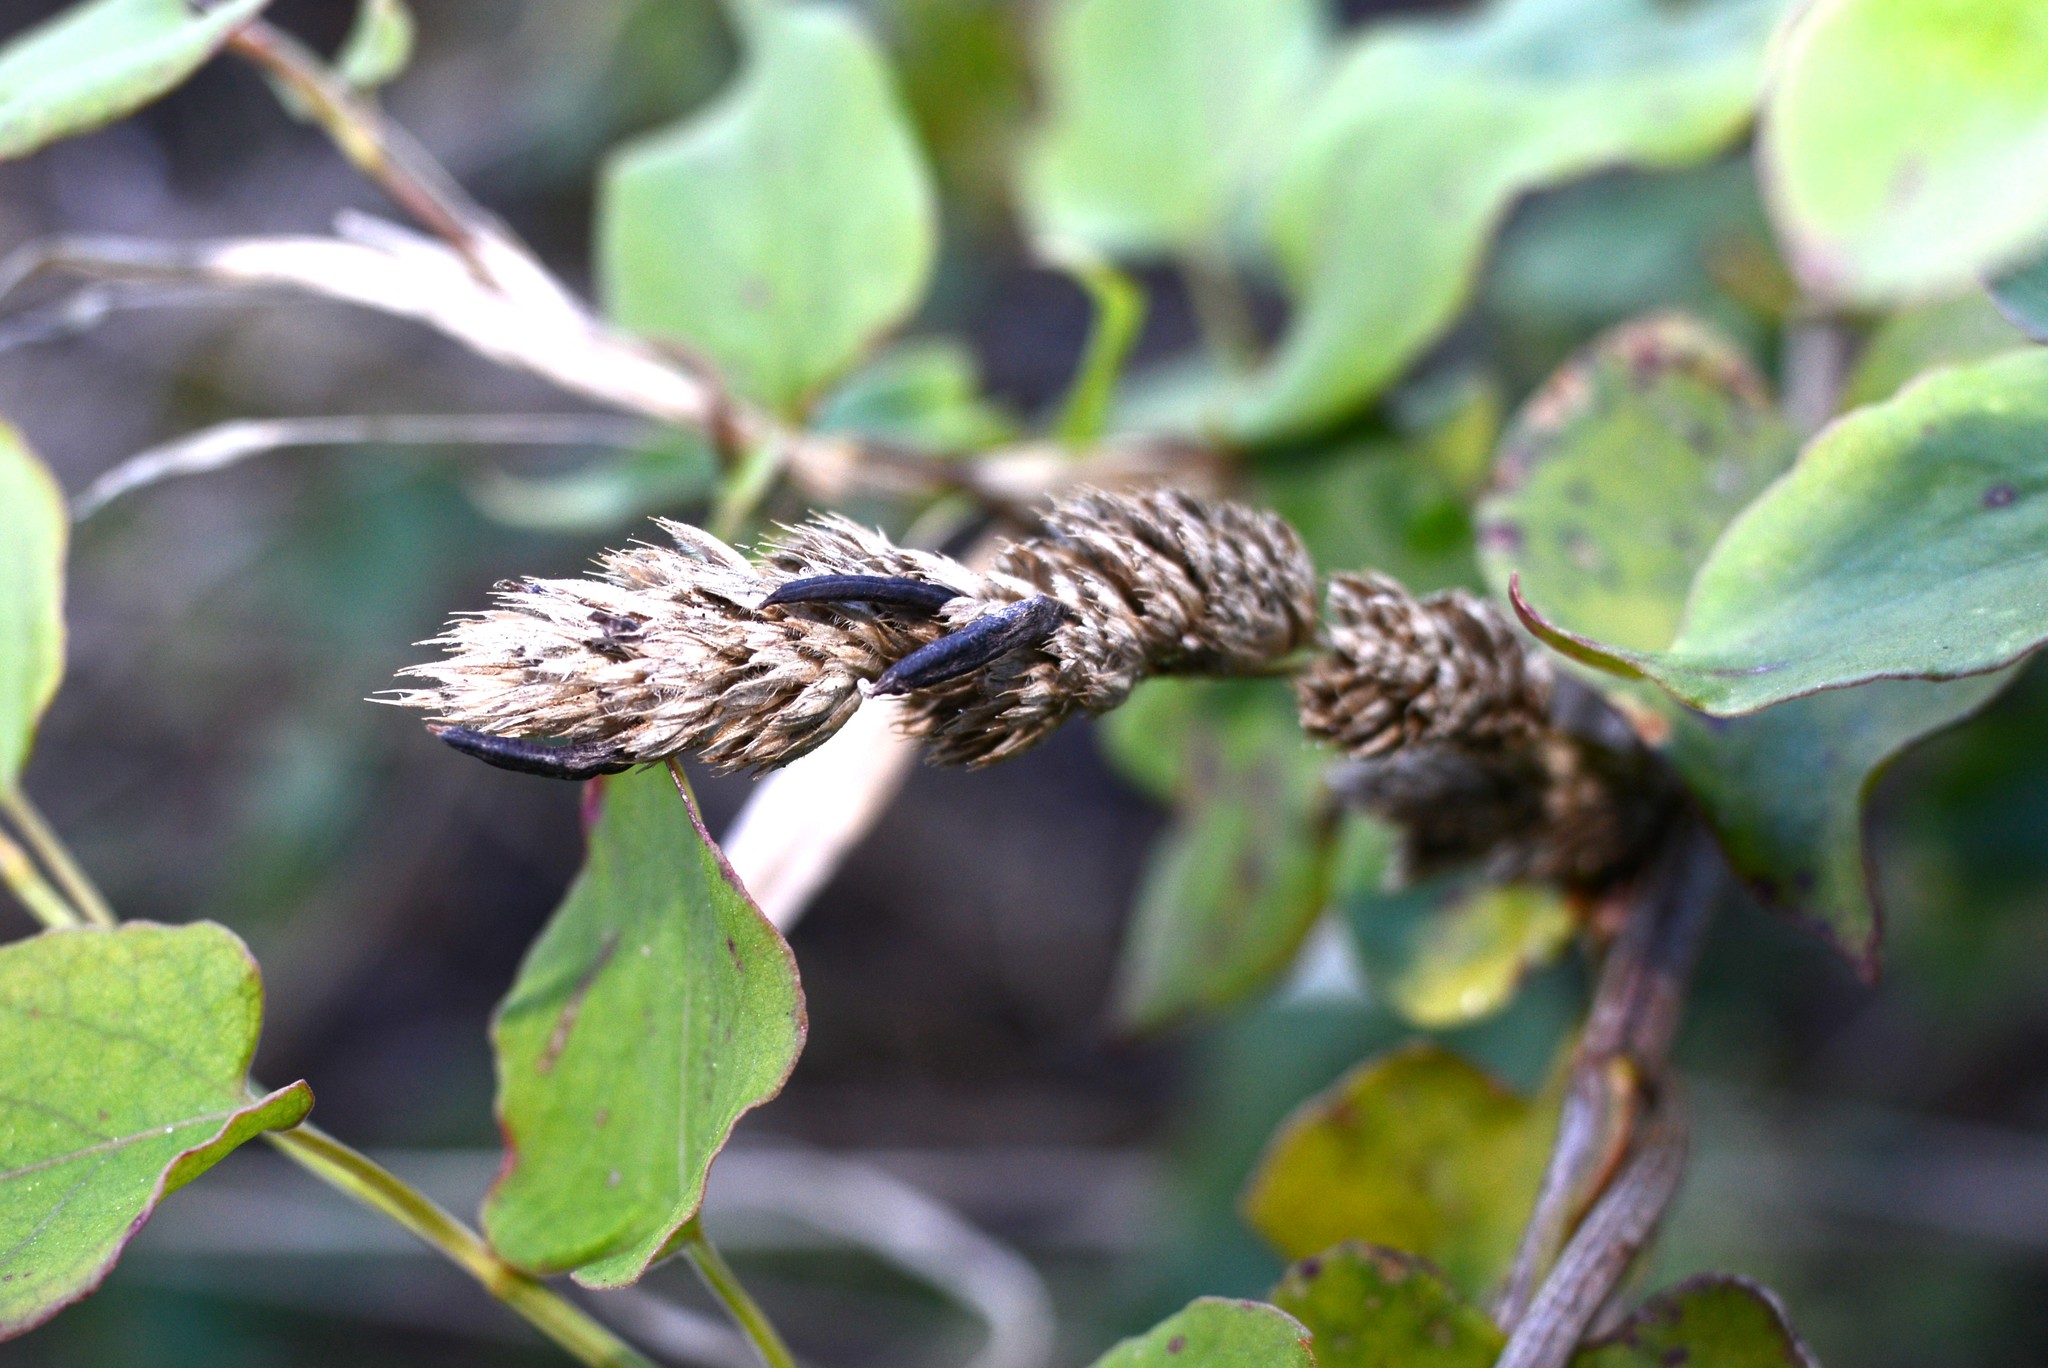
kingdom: Fungi
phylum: Ascomycota
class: Sordariomycetes
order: Hypocreales
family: Clavicipitaceae
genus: Claviceps
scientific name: Claviceps purpurea
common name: Rye ergot
